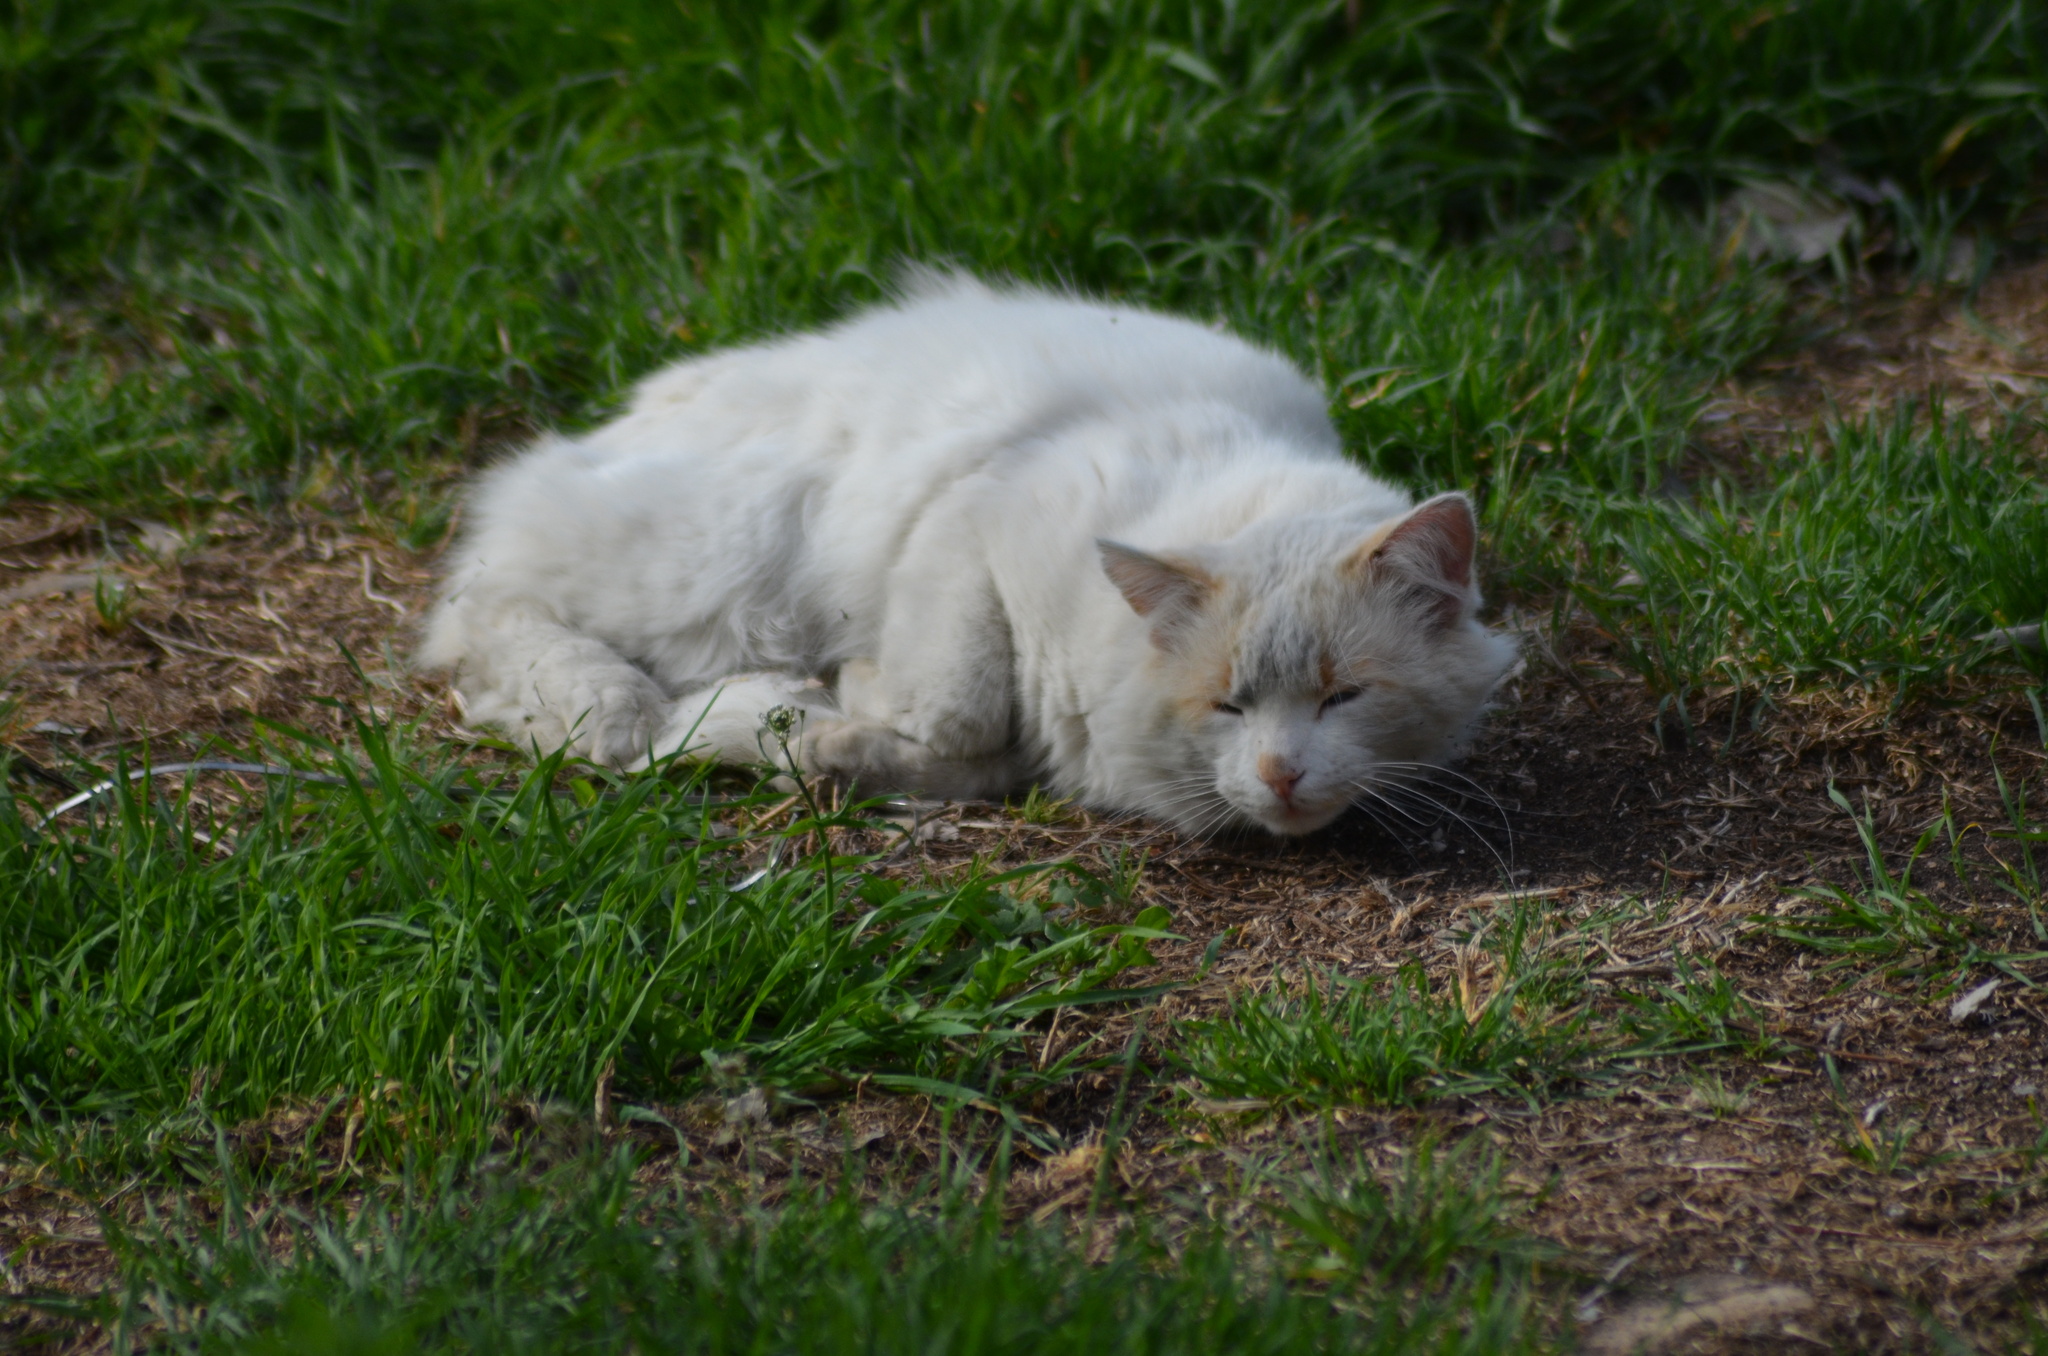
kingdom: Animalia
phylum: Chordata
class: Mammalia
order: Carnivora
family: Felidae
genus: Felis
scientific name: Felis catus
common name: Domestic cat
